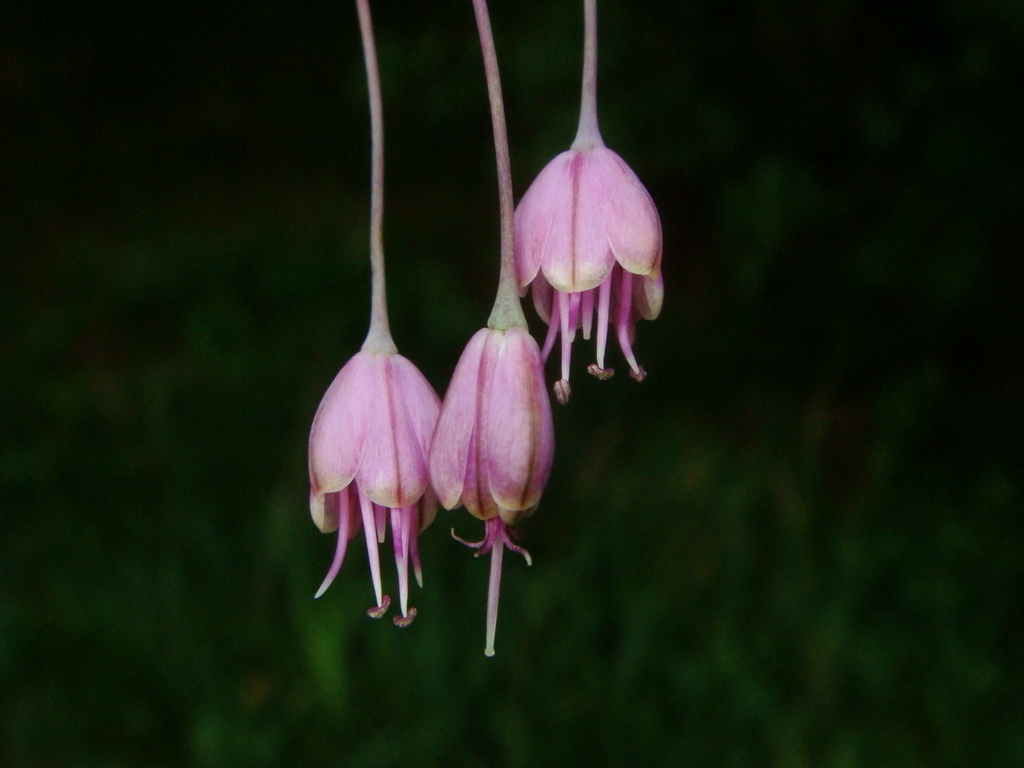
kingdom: Plantae
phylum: Tracheophyta
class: Liliopsida
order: Asparagales
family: Amaryllidaceae
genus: Allium
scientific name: Allium carinatum
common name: Keeled garlic
